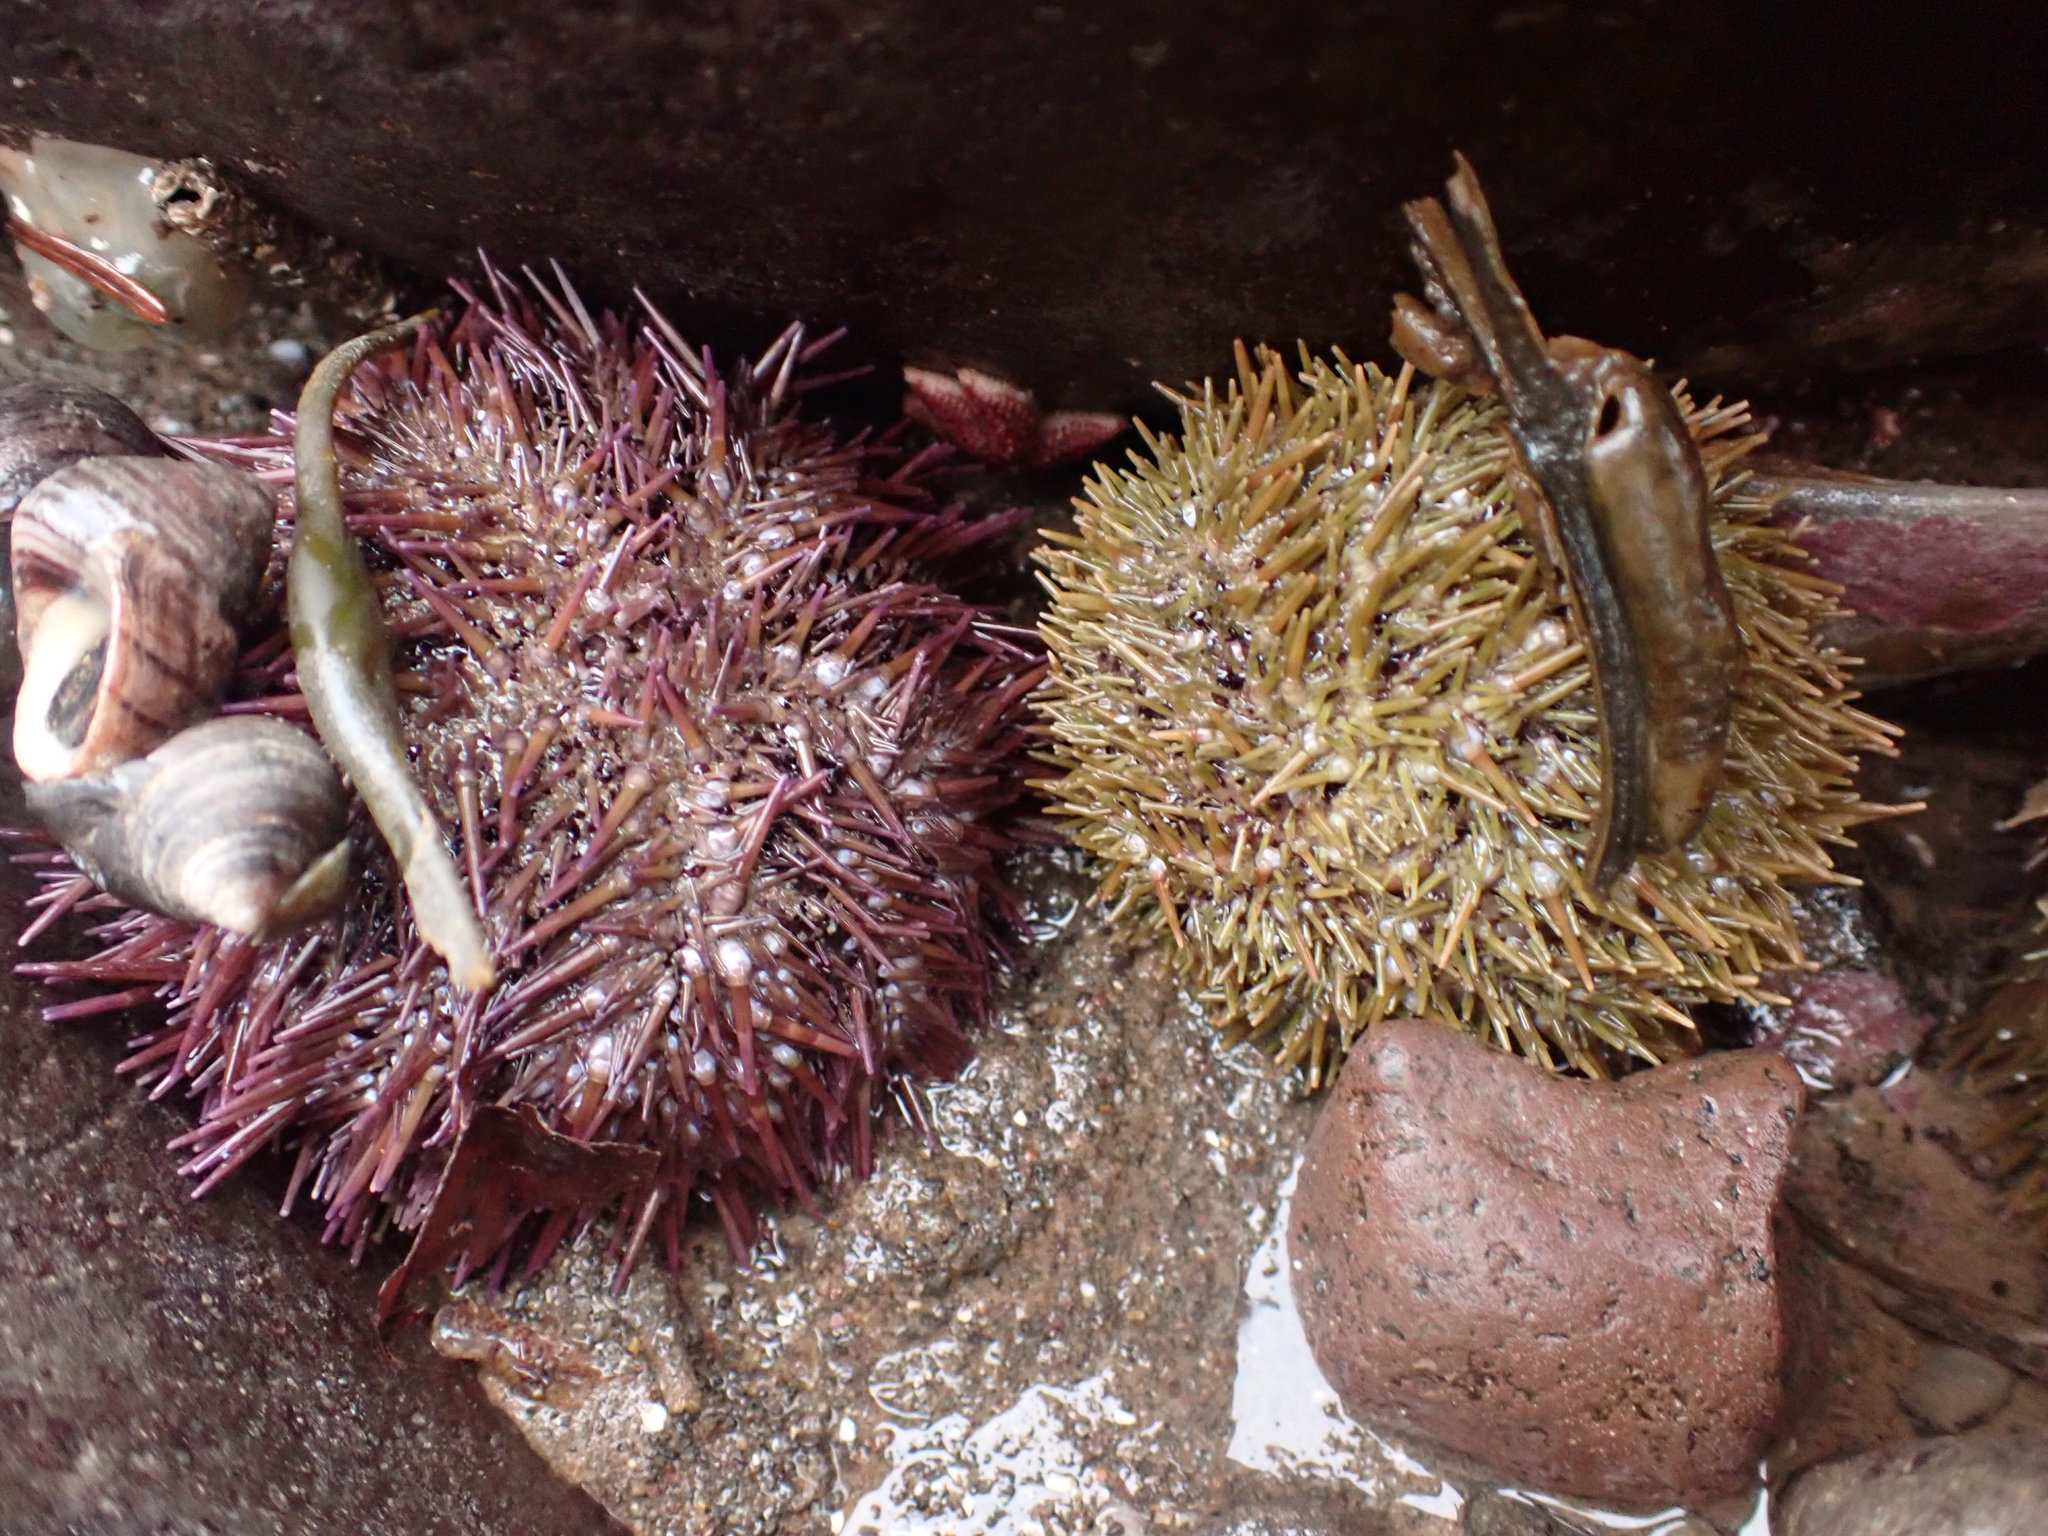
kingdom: Animalia
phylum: Echinodermata
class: Echinoidea
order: Camarodonta
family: Strongylocentrotidae
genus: Strongylocentrotus
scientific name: Strongylocentrotus droebachiensis
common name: Northern sea urchin
